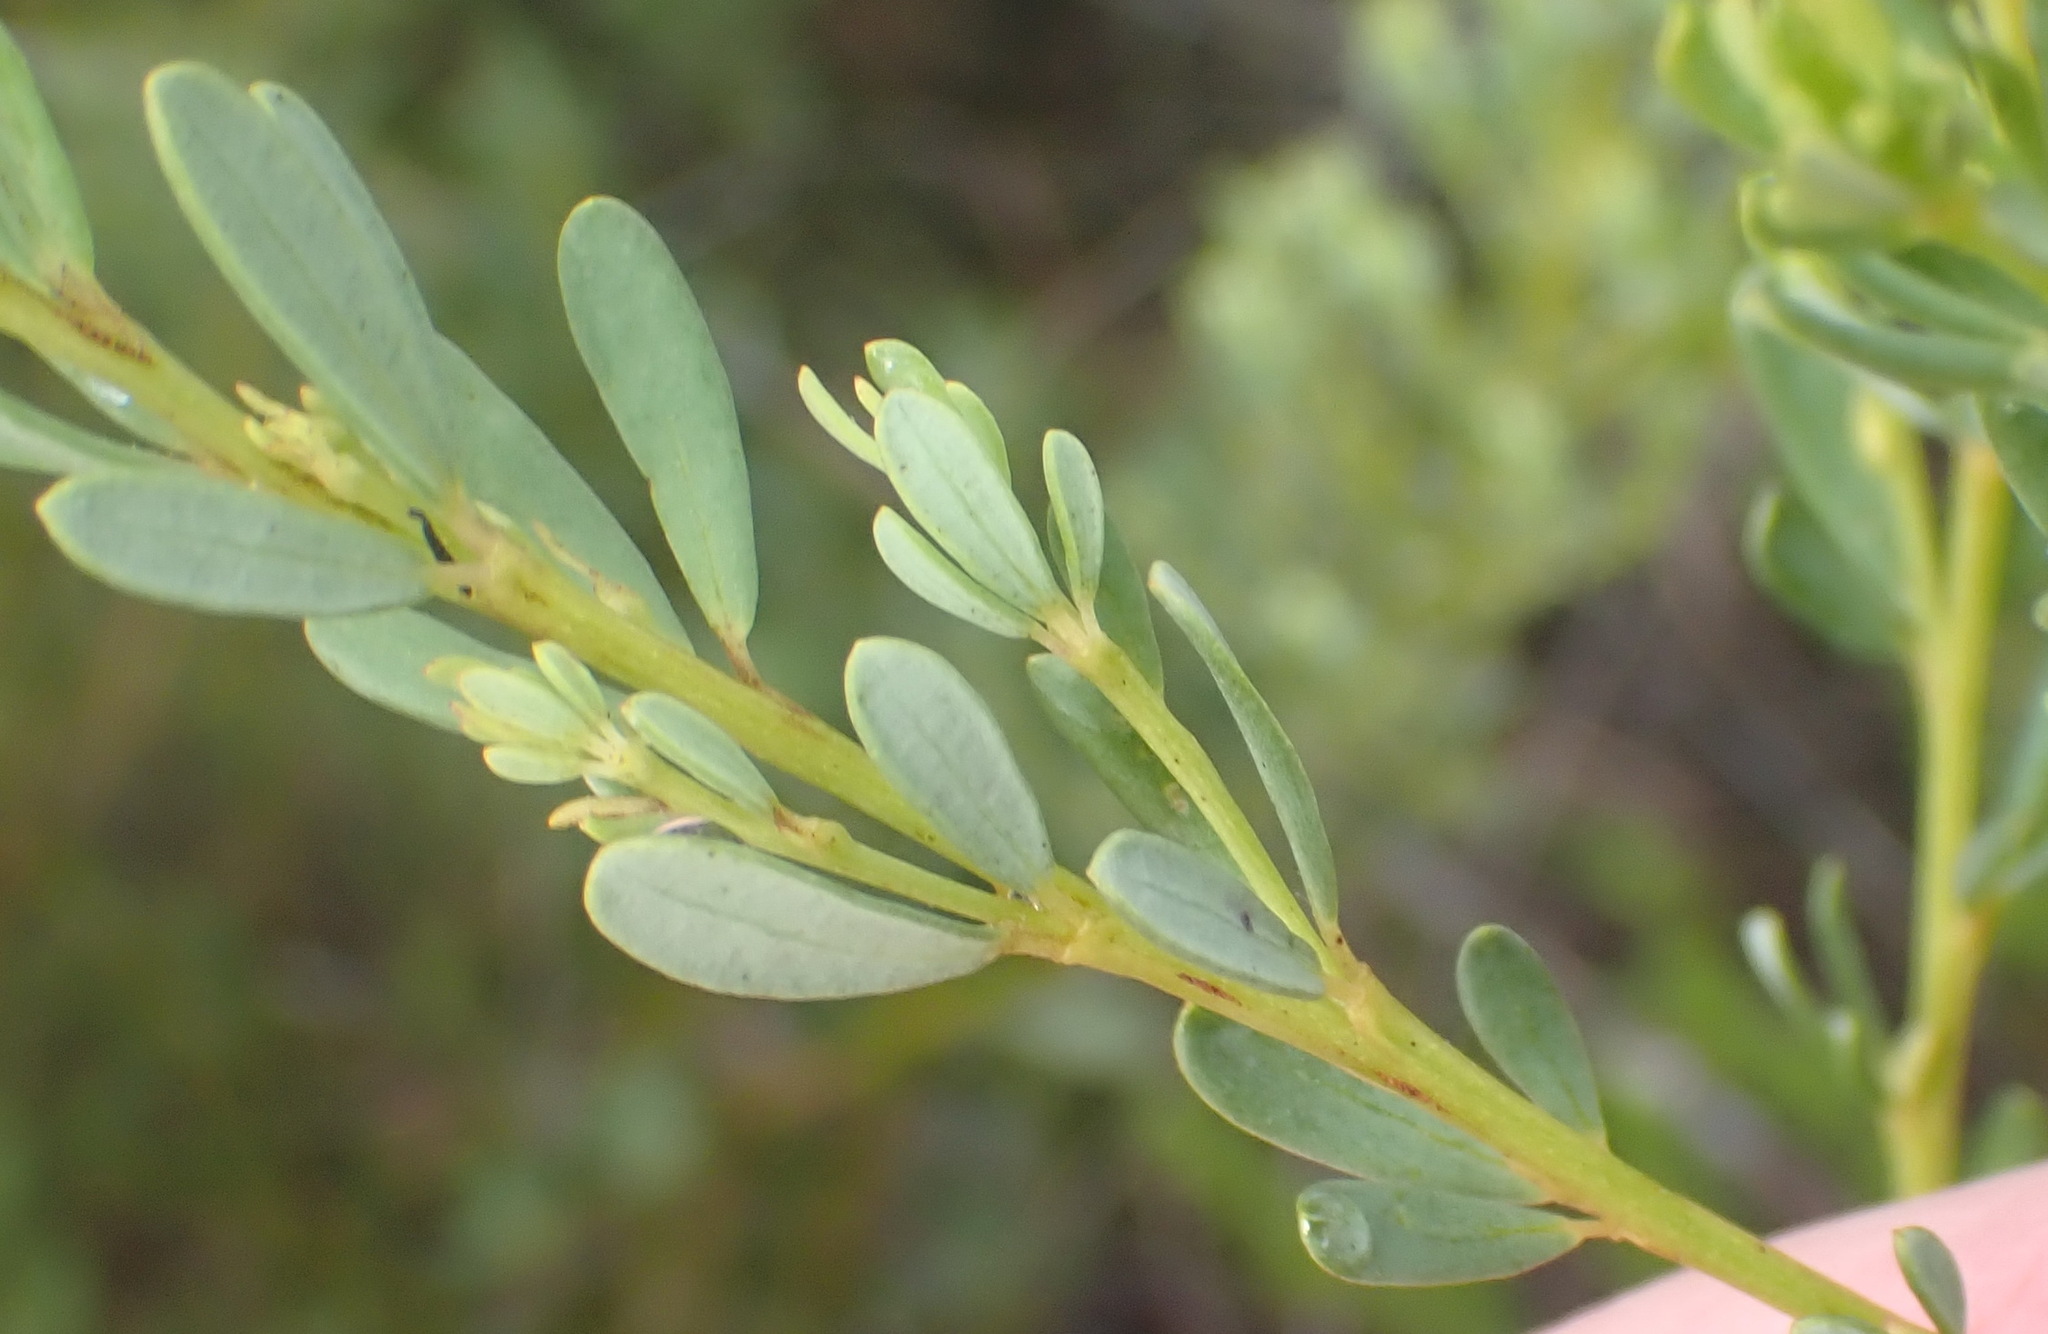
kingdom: Plantae
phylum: Tracheophyta
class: Magnoliopsida
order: Fabales
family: Fabaceae
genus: Cyclopia
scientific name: Cyclopia subternata
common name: Honeybush tea
